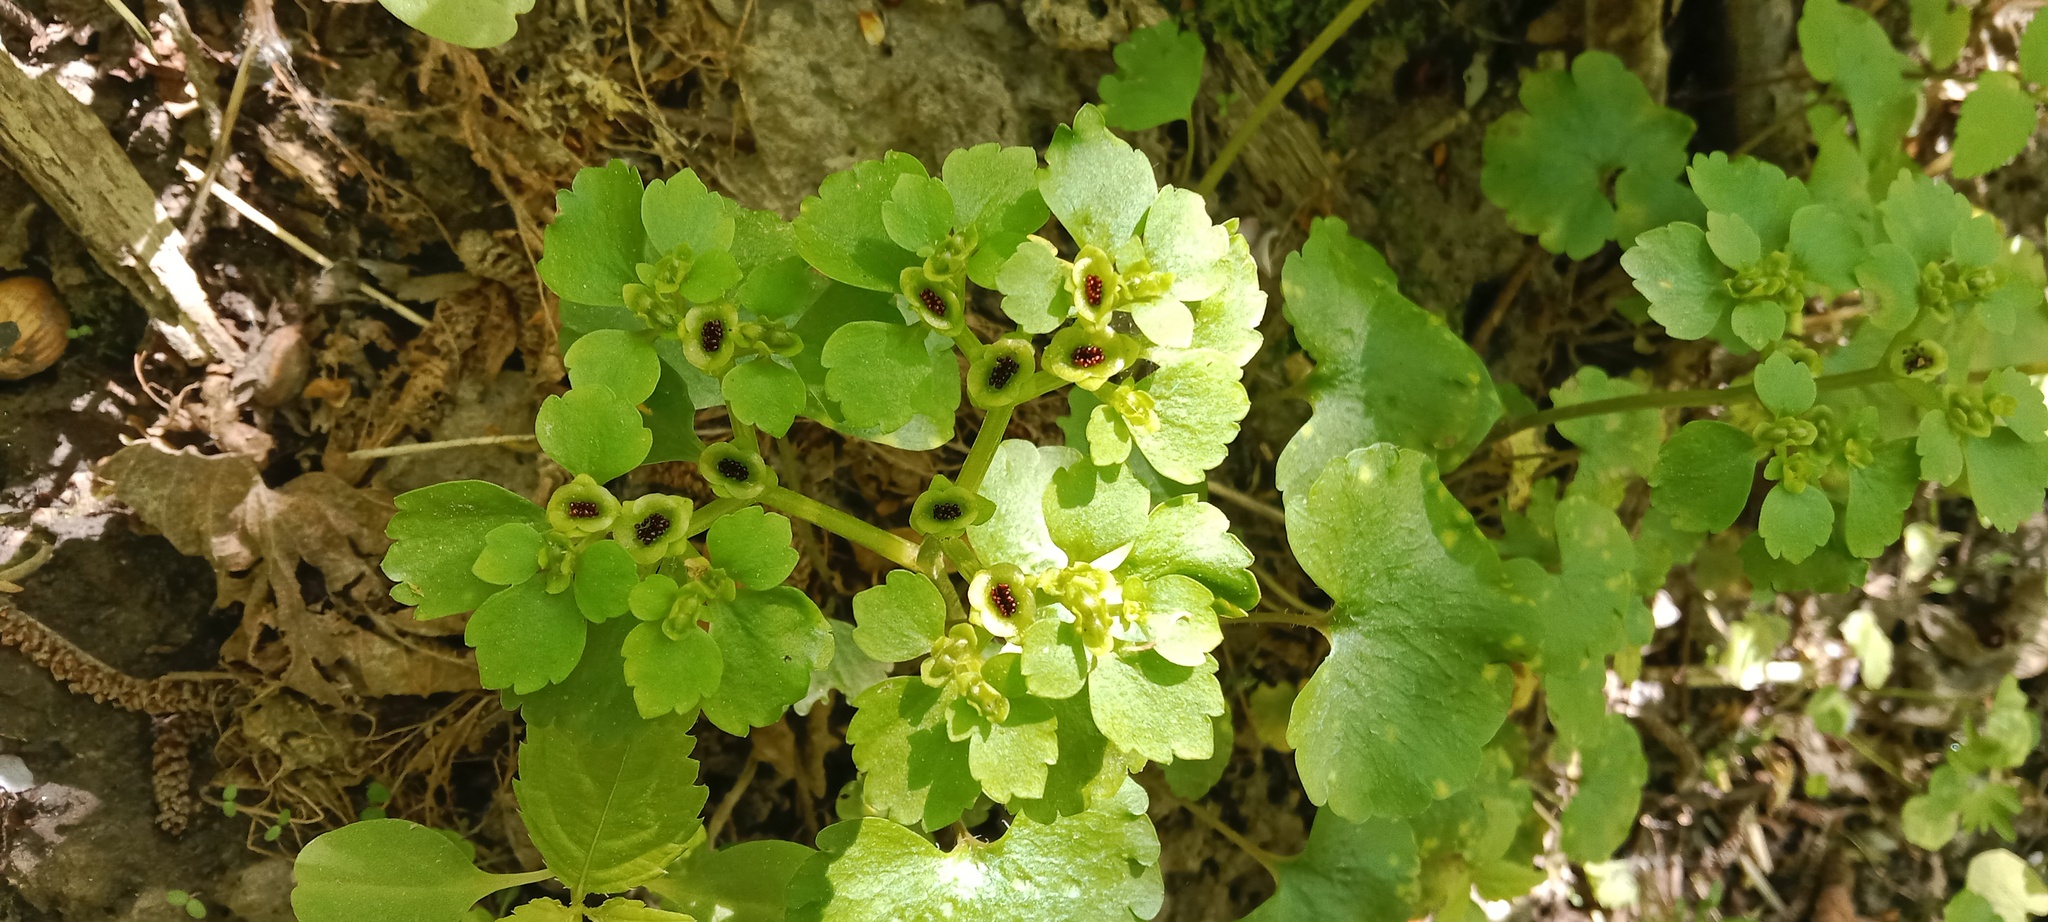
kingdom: Plantae
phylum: Tracheophyta
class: Magnoliopsida
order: Saxifragales
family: Saxifragaceae
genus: Chrysosplenium
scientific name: Chrysosplenium alternifolium
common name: Alternate-leaved golden-saxifrage
